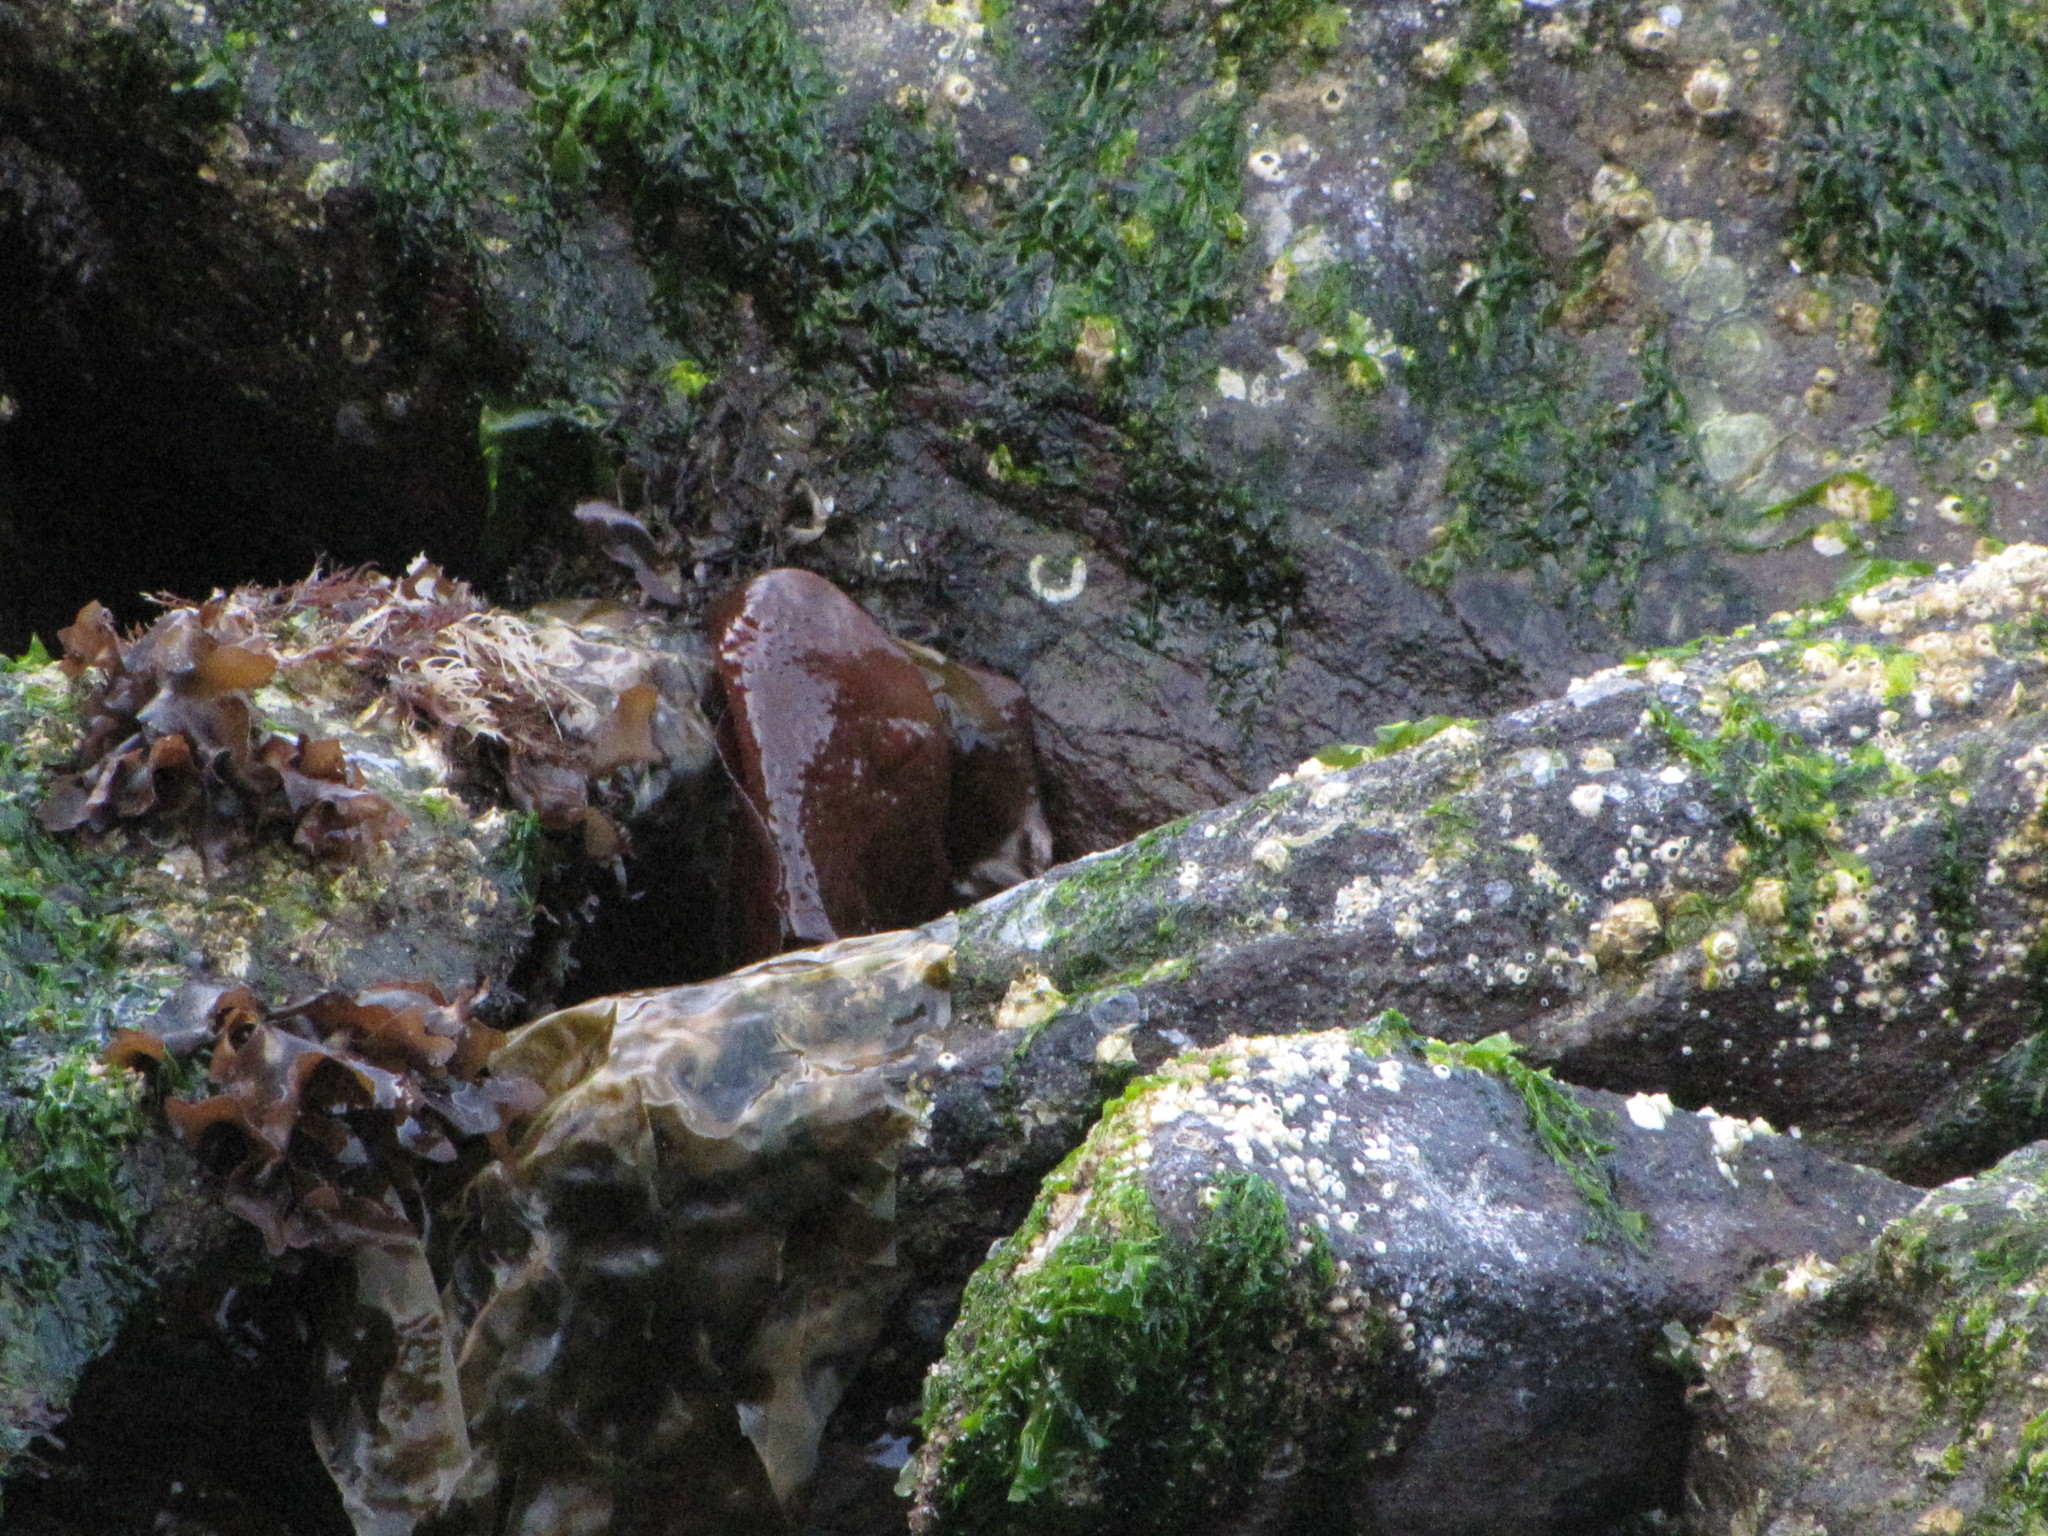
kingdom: Plantae
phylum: Rhodophyta
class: Florideophyceae
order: Gigartinales
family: Gigartinaceae
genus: Chondracanthus
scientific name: Chondracanthus exasperatus
